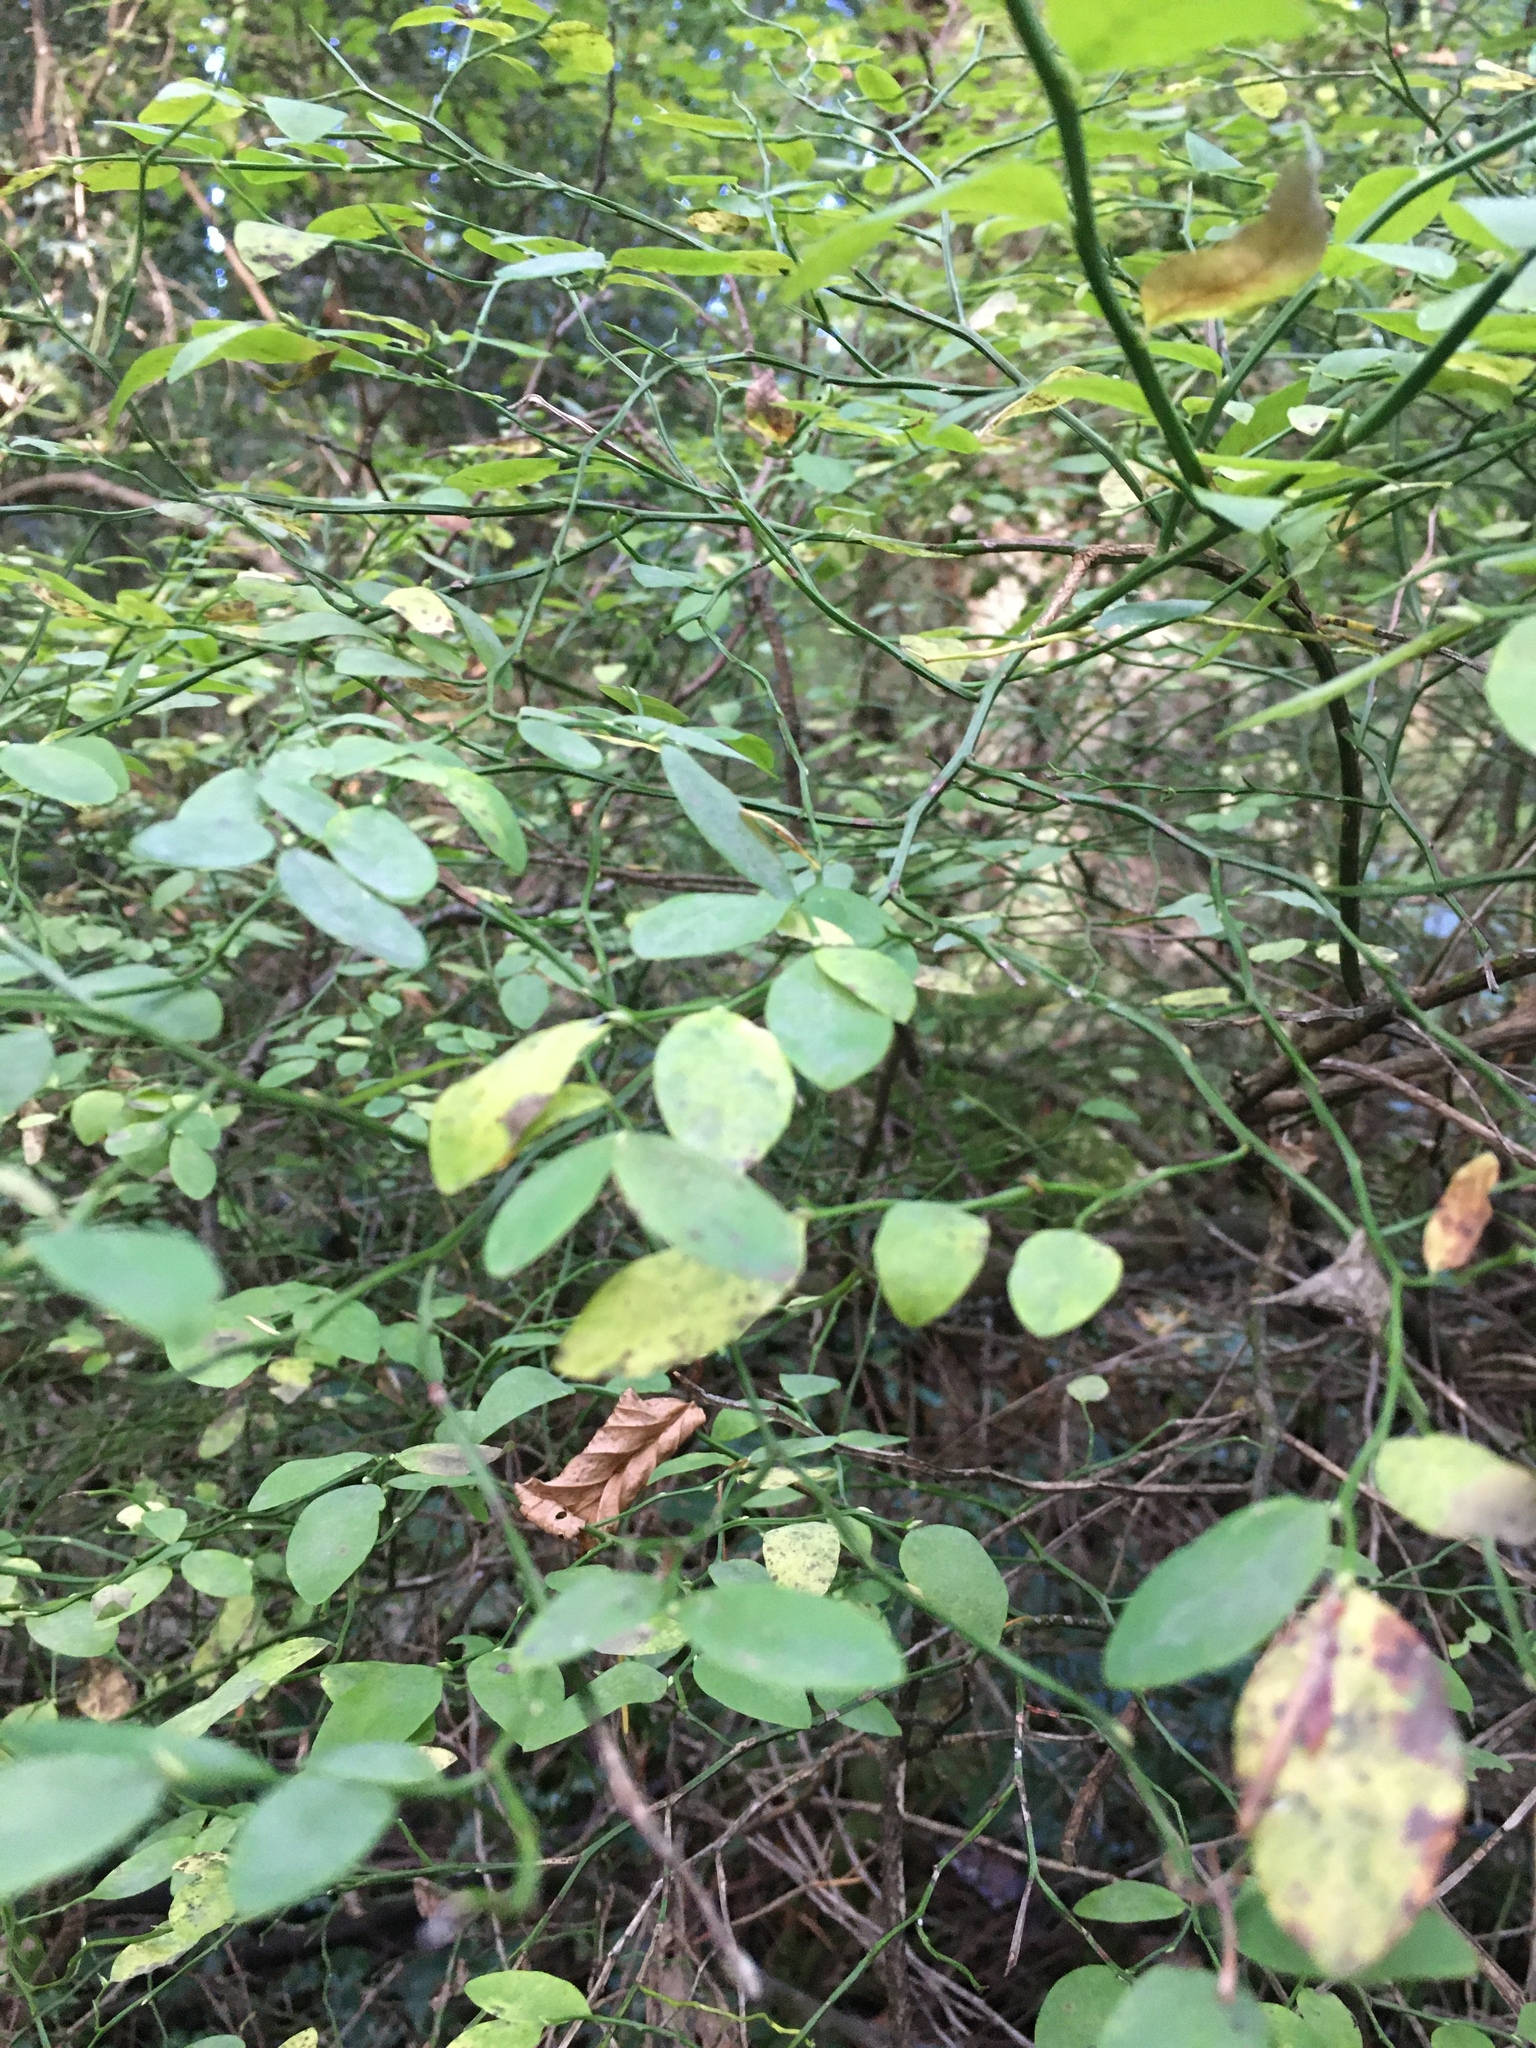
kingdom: Plantae
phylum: Tracheophyta
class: Magnoliopsida
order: Ericales
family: Ericaceae
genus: Vaccinium
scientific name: Vaccinium parvifolium
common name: Red-huckleberry
